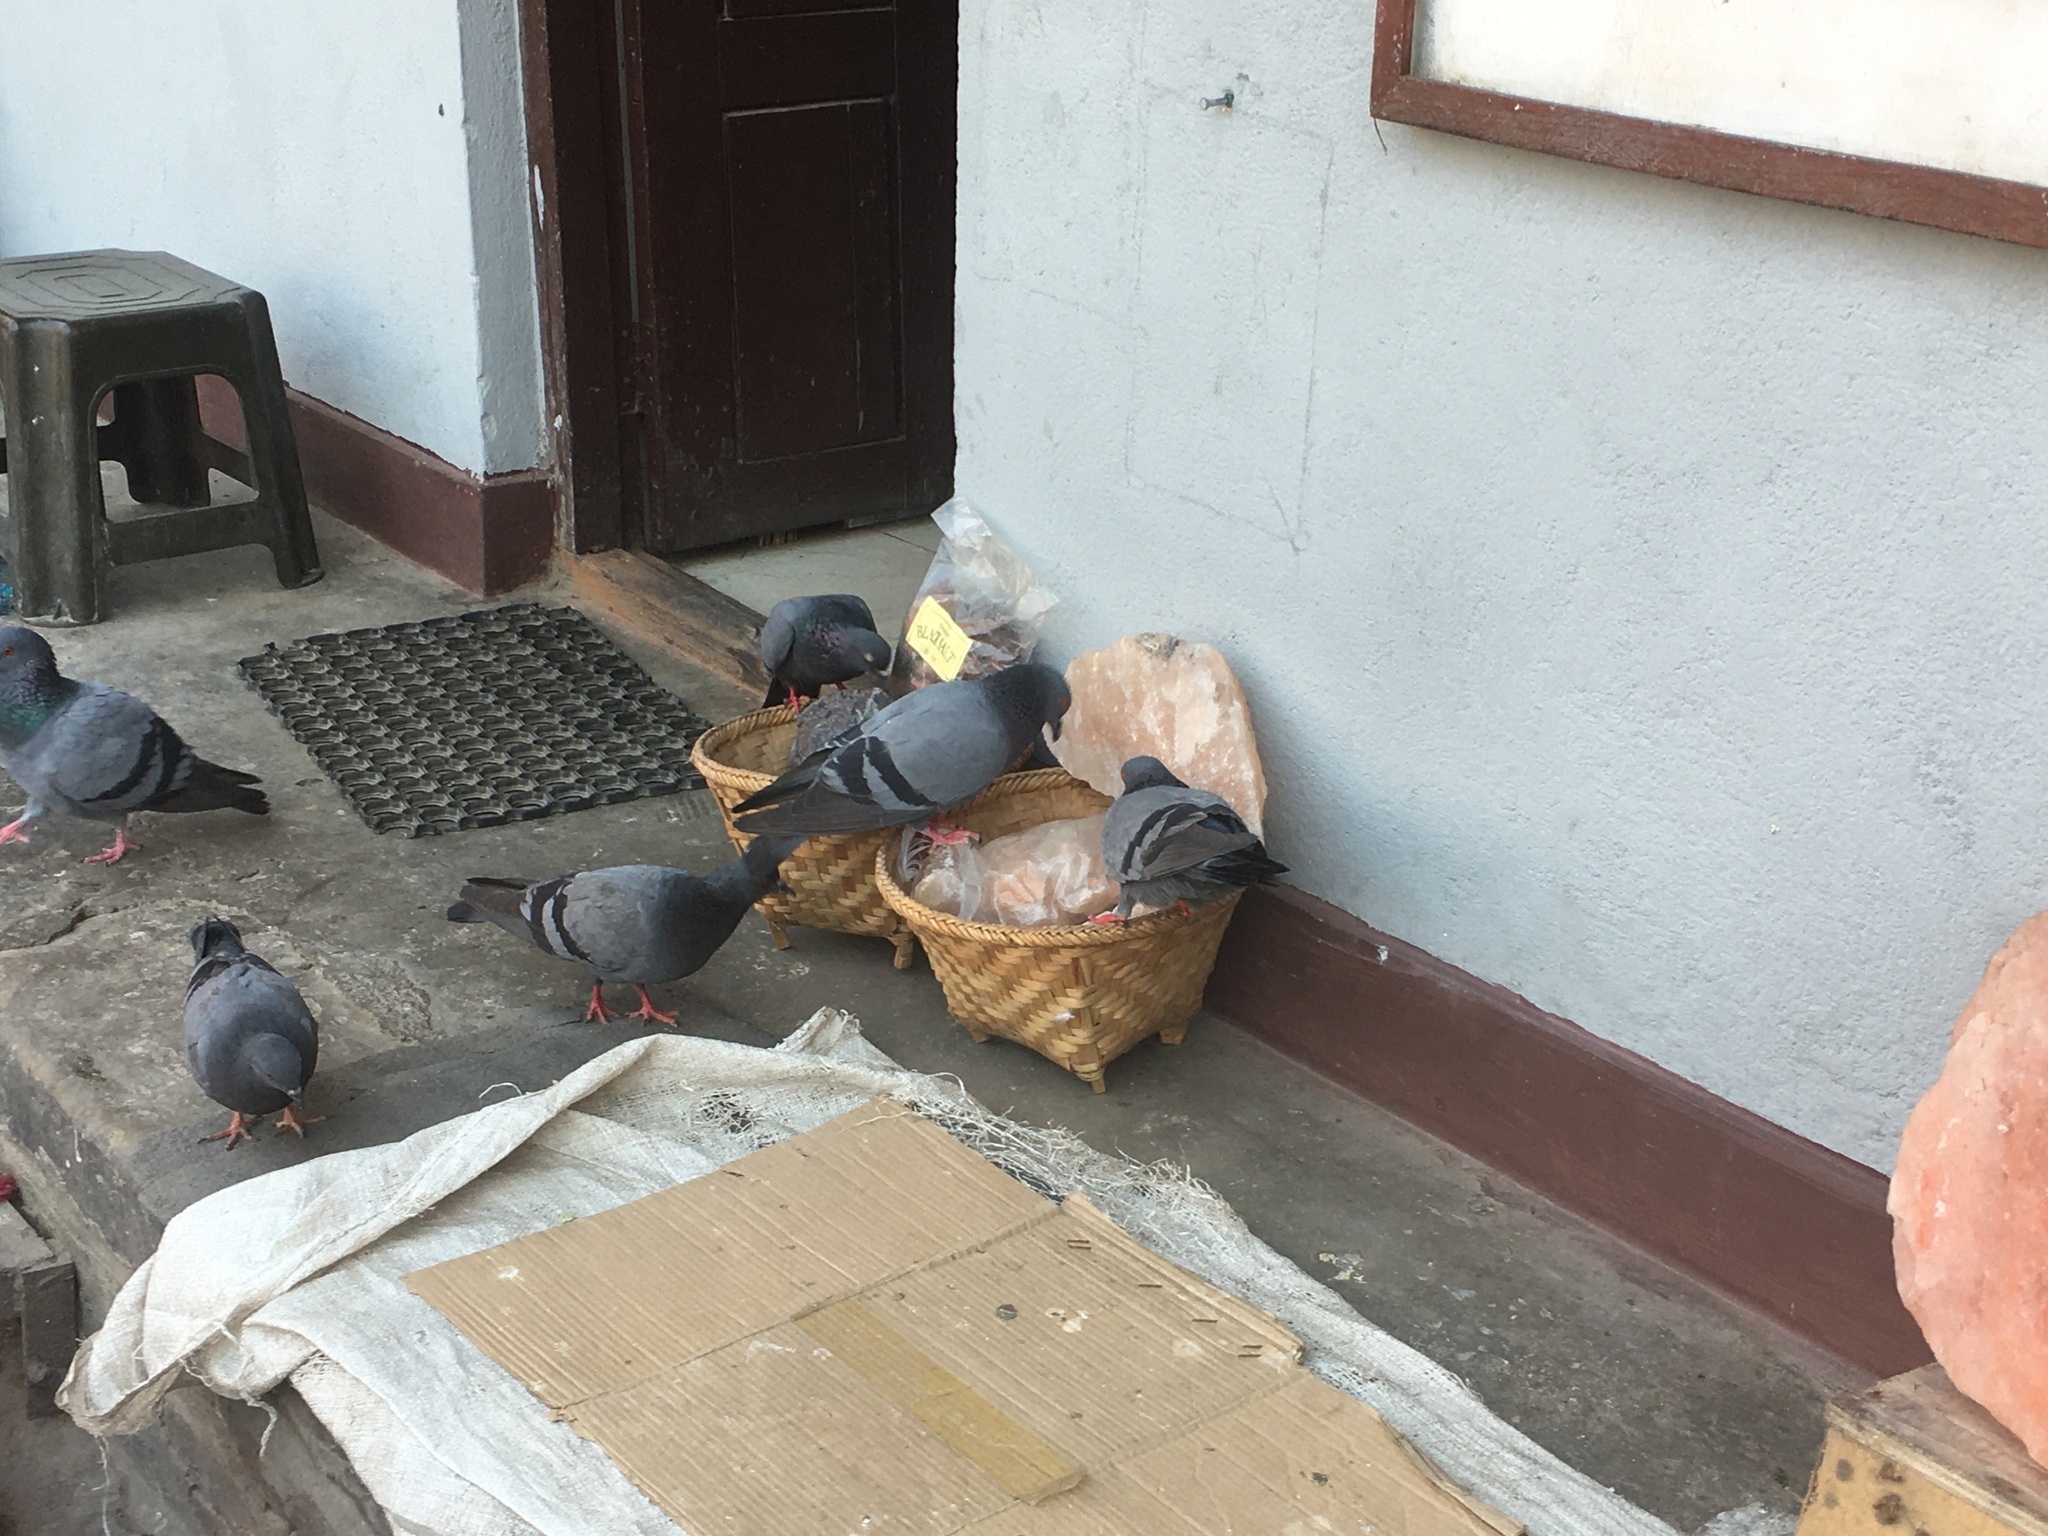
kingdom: Animalia
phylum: Chordata
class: Aves
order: Columbiformes
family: Columbidae
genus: Columba
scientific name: Columba livia
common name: Rock pigeon
